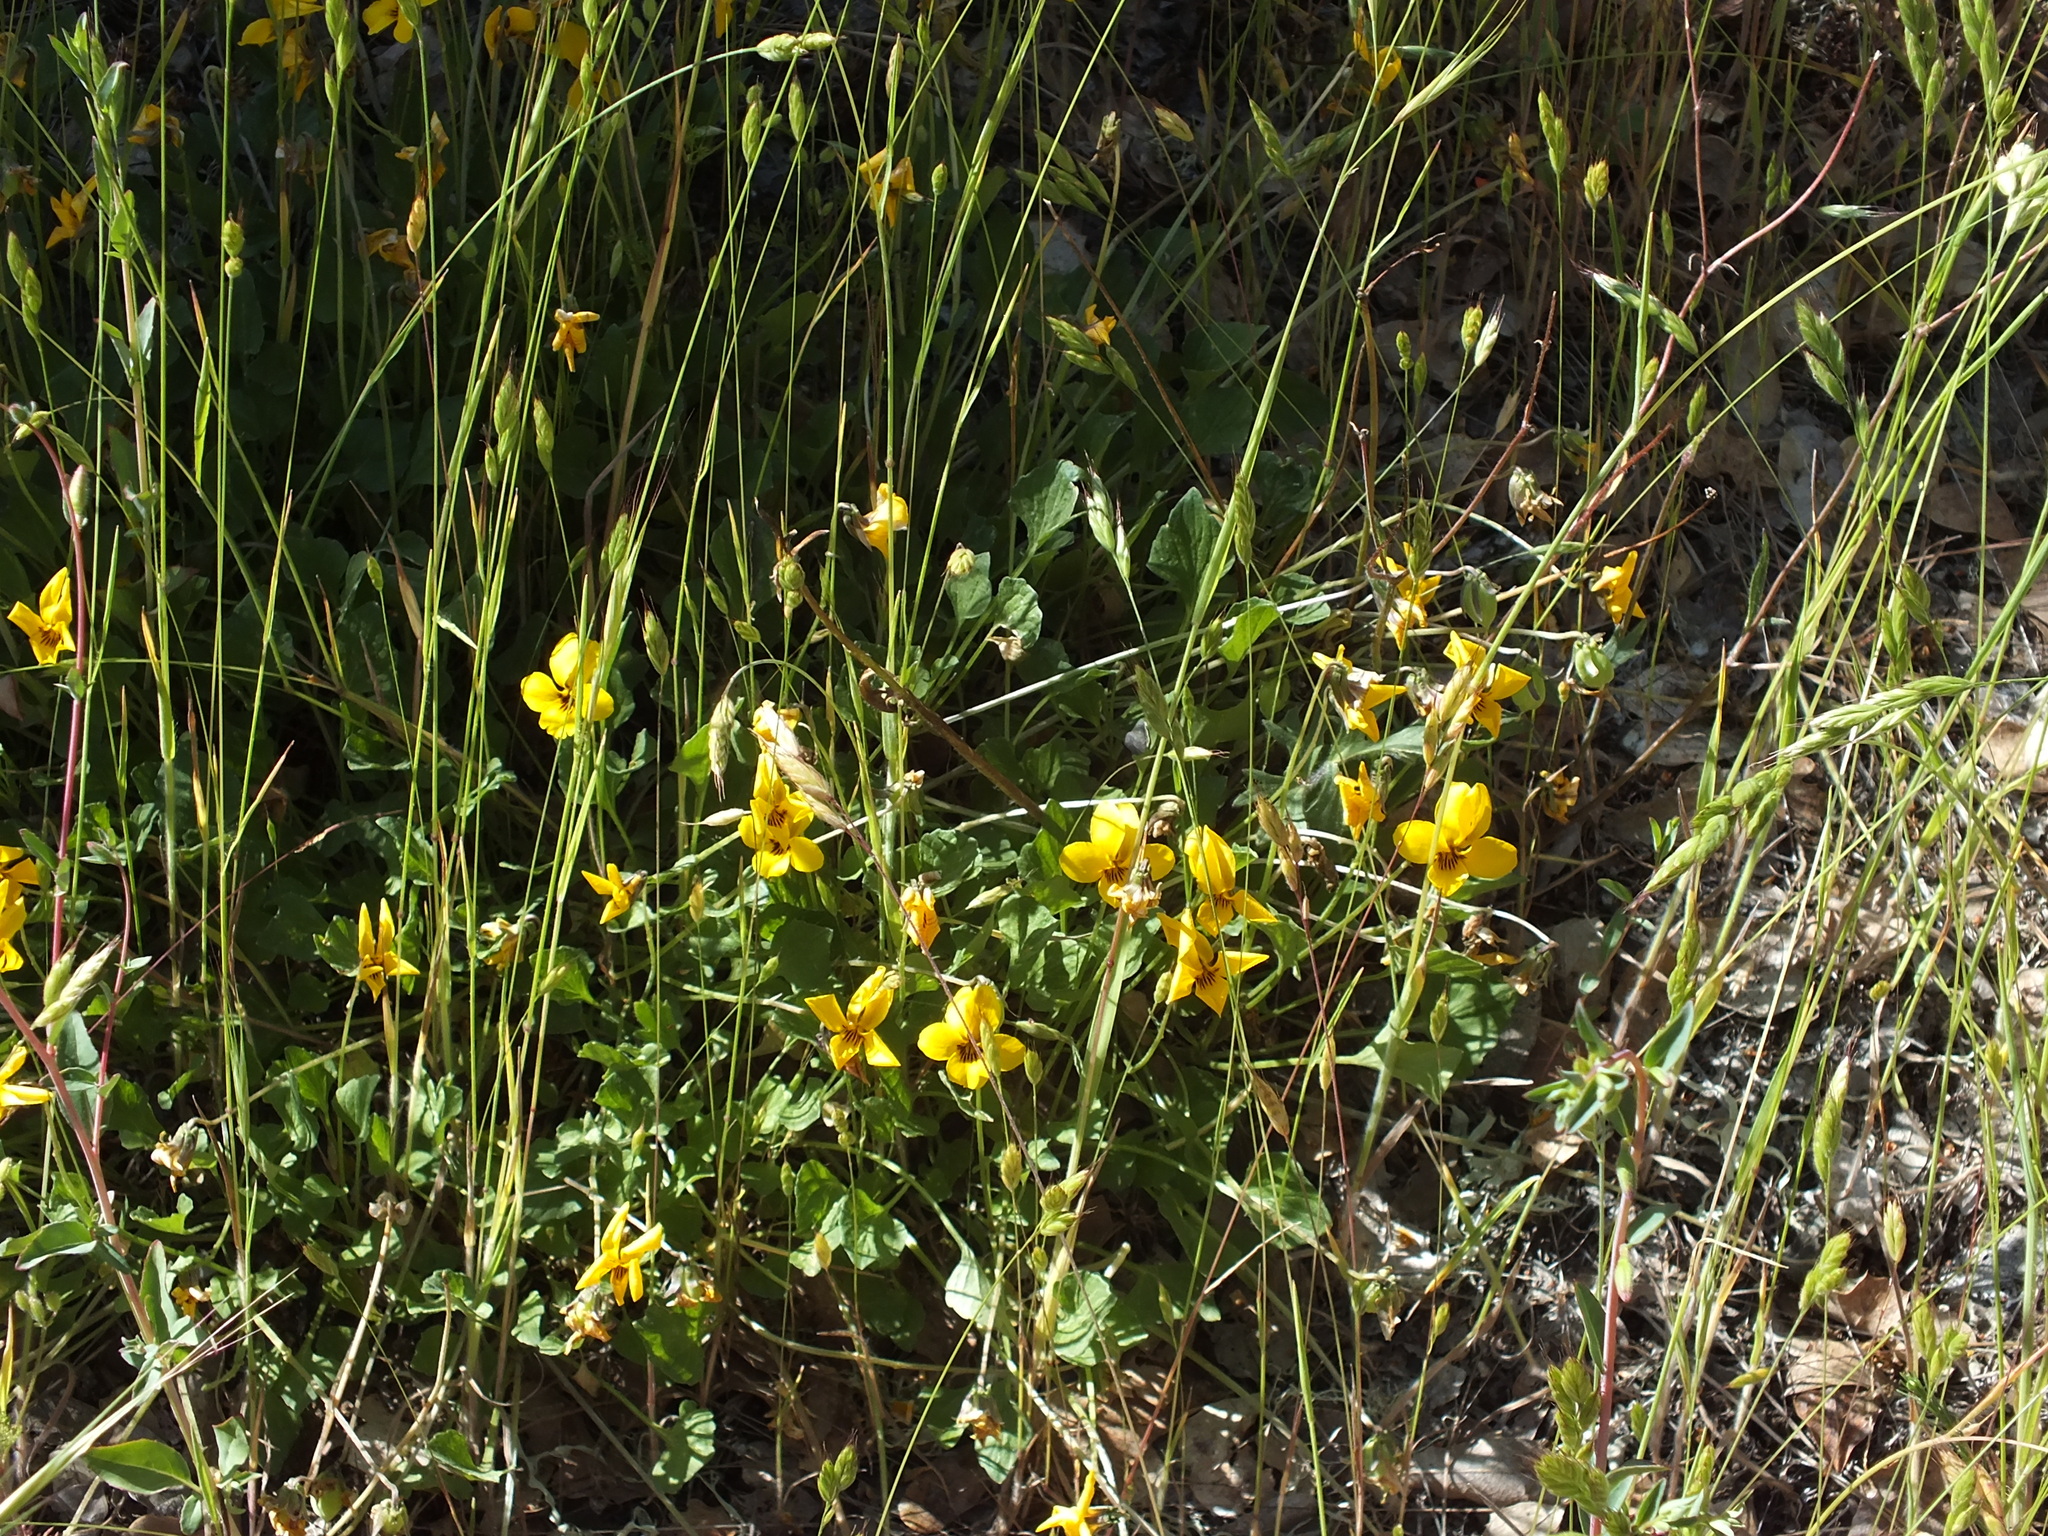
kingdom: Plantae
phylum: Tracheophyta
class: Magnoliopsida
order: Malpighiales
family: Violaceae
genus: Viola
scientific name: Viola pedunculata
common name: California golden violet
